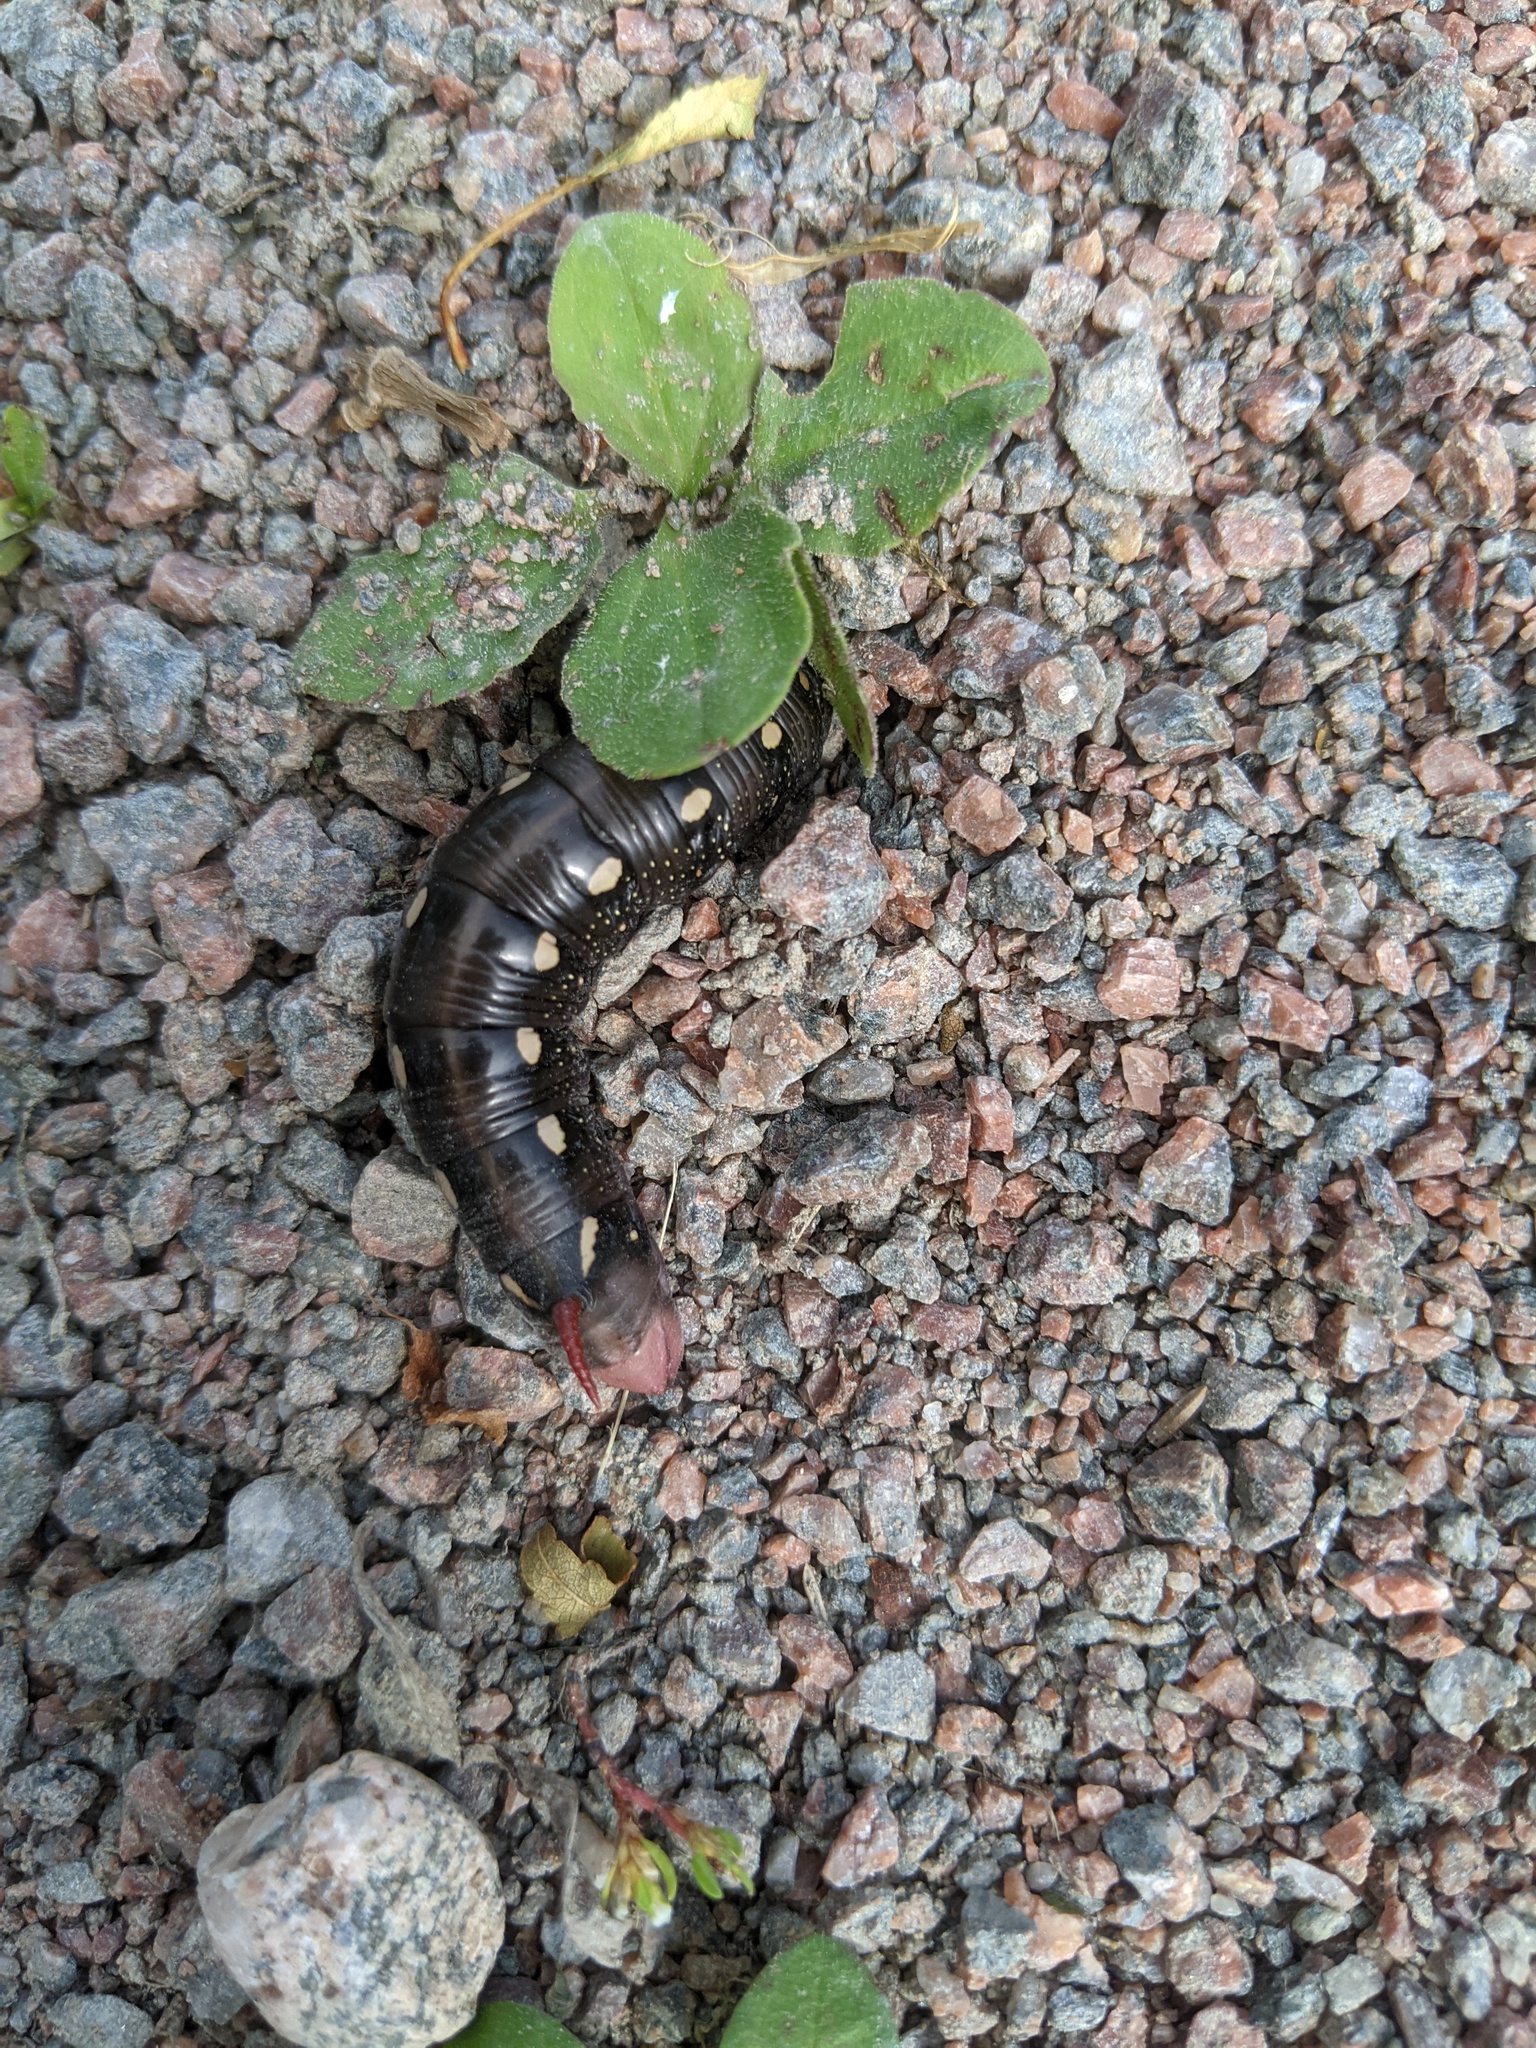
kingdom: Animalia
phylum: Arthropoda
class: Insecta
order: Lepidoptera
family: Sphingidae
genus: Hyles
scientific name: Hyles gallii
